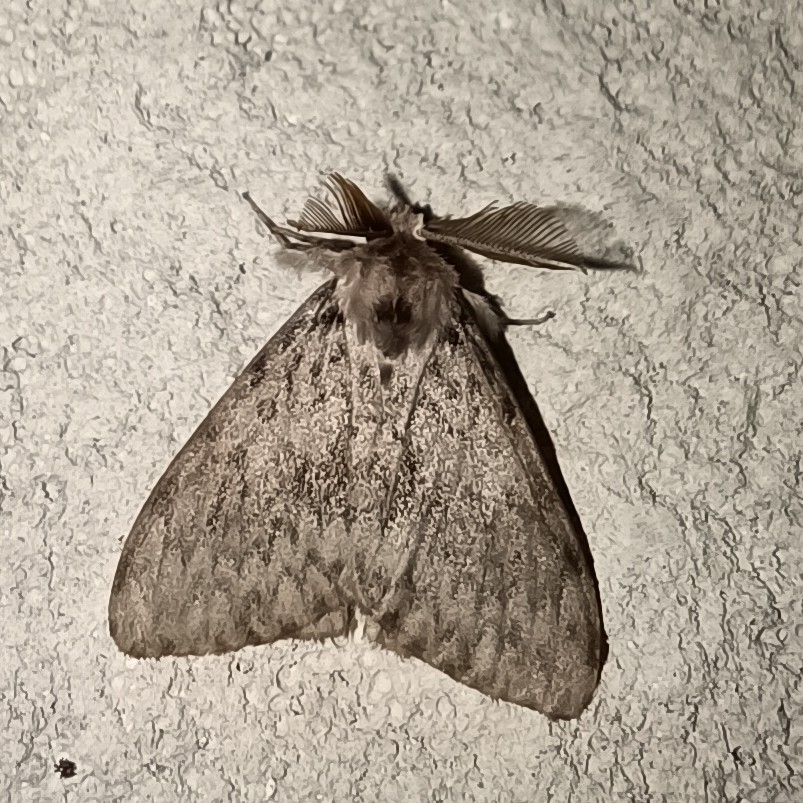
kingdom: Animalia
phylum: Arthropoda
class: Insecta
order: Lepidoptera
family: Erebidae
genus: Lymantria
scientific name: Lymantria monacha
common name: Black arches
